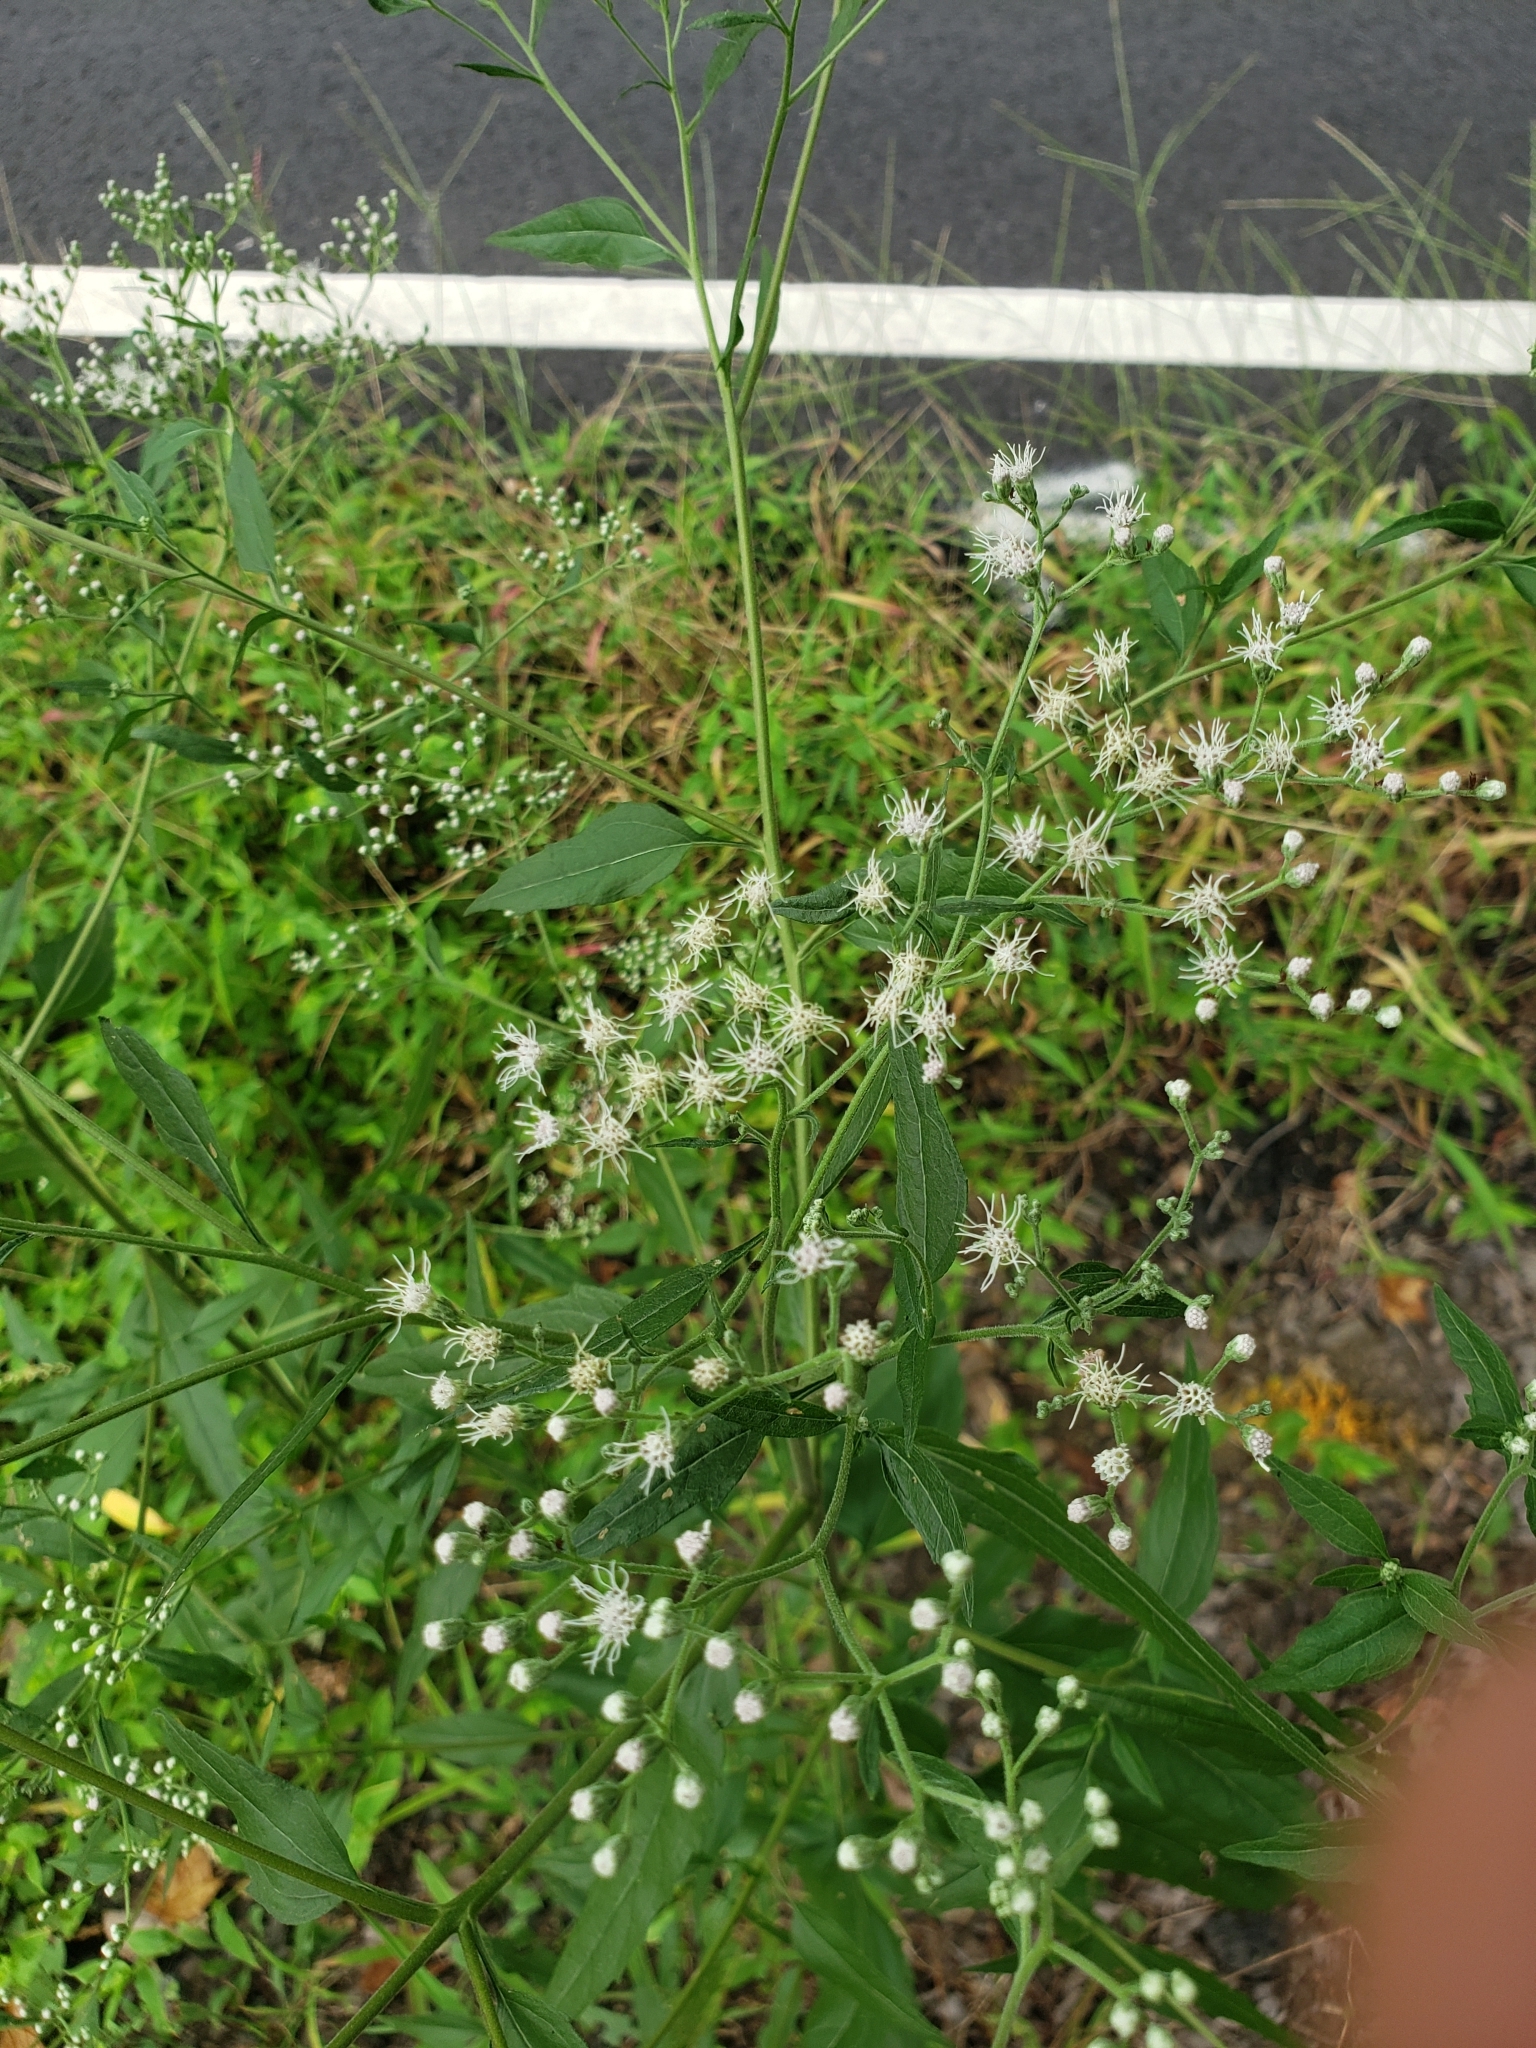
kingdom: Plantae
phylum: Tracheophyta
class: Magnoliopsida
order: Asterales
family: Asteraceae
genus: Eupatorium
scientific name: Eupatorium serotinum
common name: Late boneset
